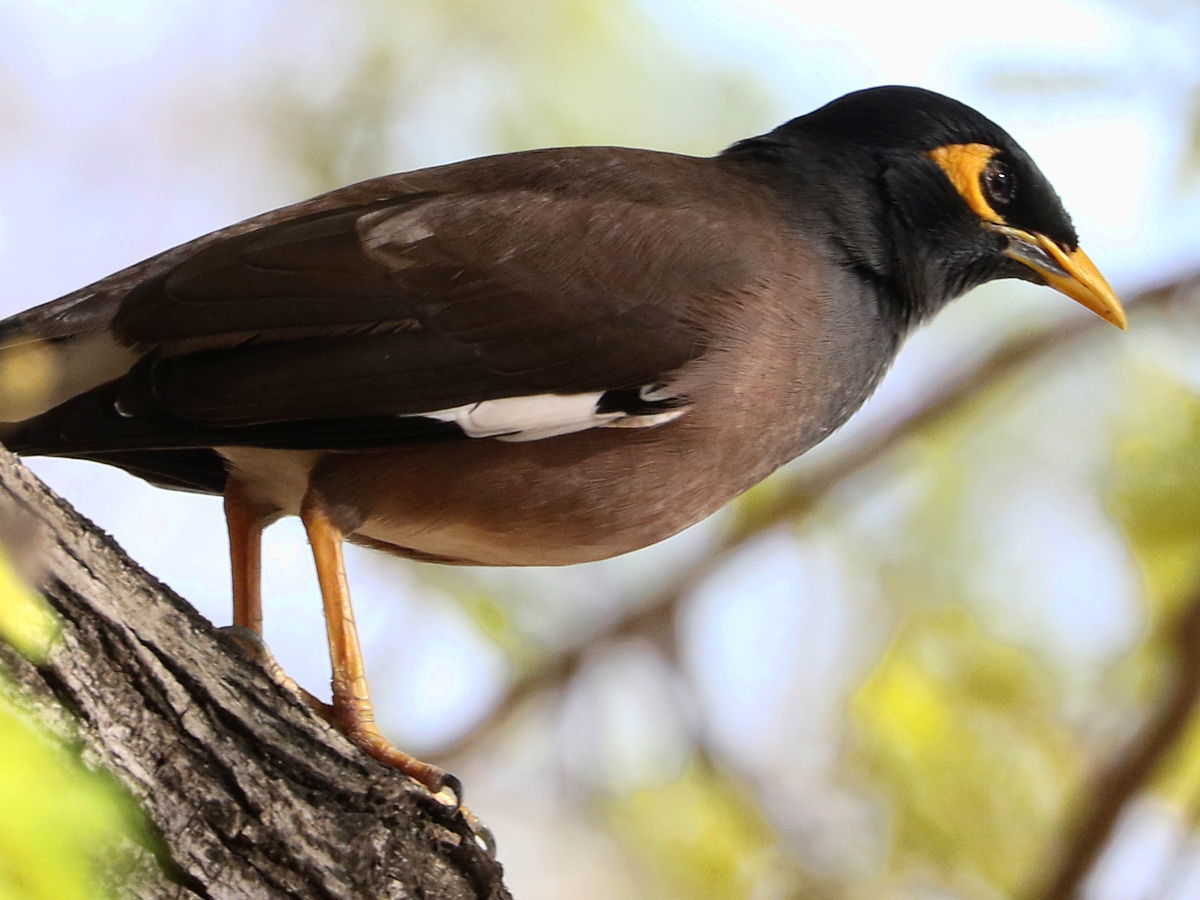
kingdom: Animalia
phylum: Chordata
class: Aves
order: Passeriformes
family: Sturnidae
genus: Acridotheres
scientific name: Acridotheres tristis
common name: Common myna
